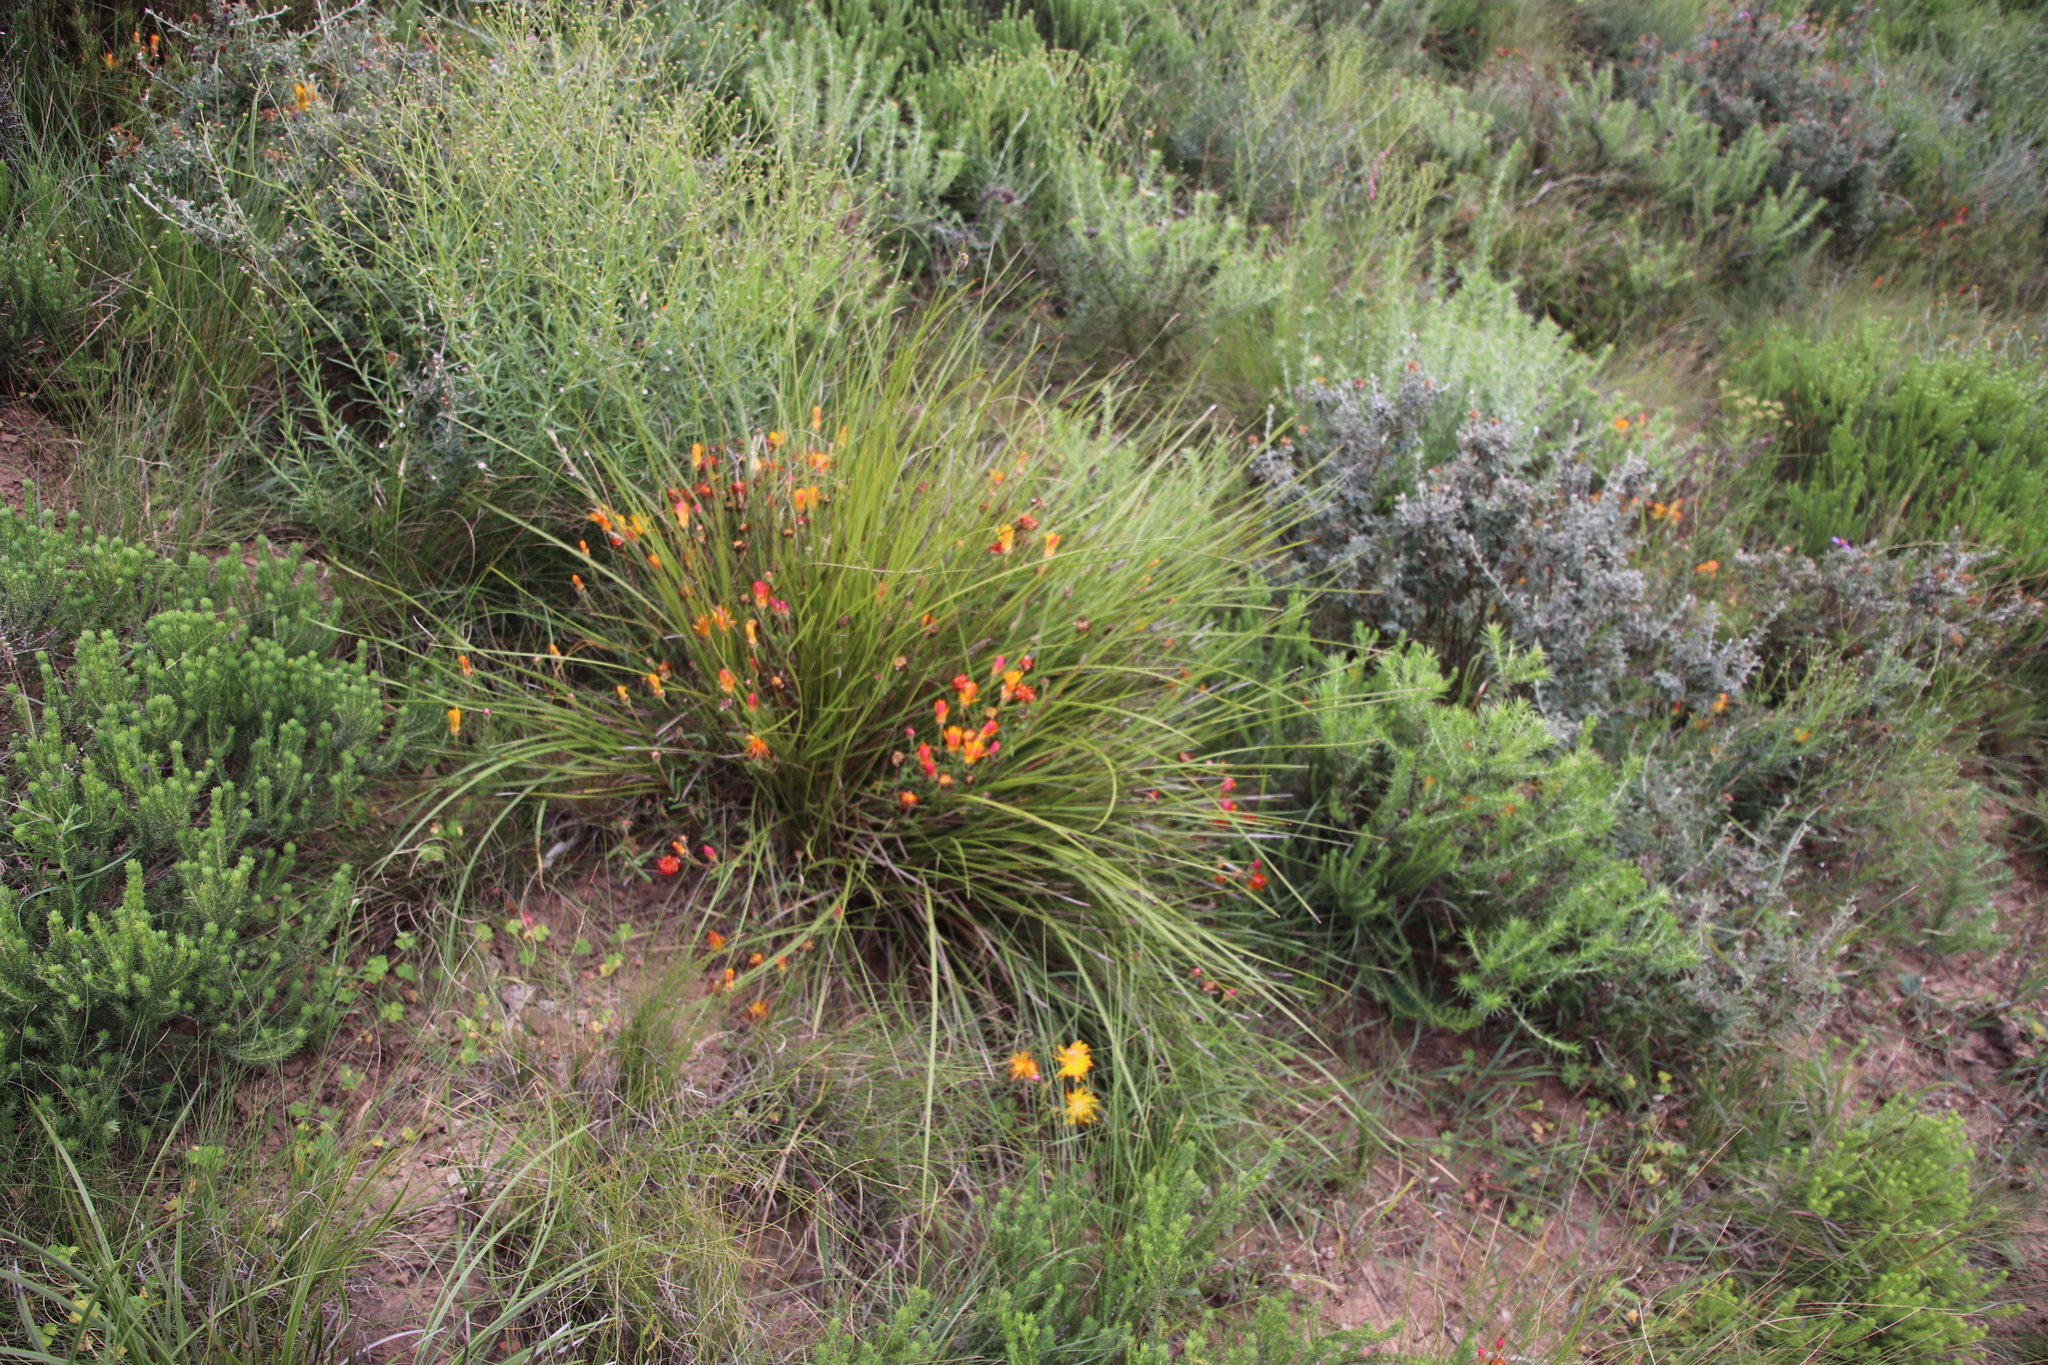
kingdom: Plantae
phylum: Tracheophyta
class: Magnoliopsida
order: Caryophyllales
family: Aizoaceae
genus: Drosanthemum
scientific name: Drosanthemum flavum
